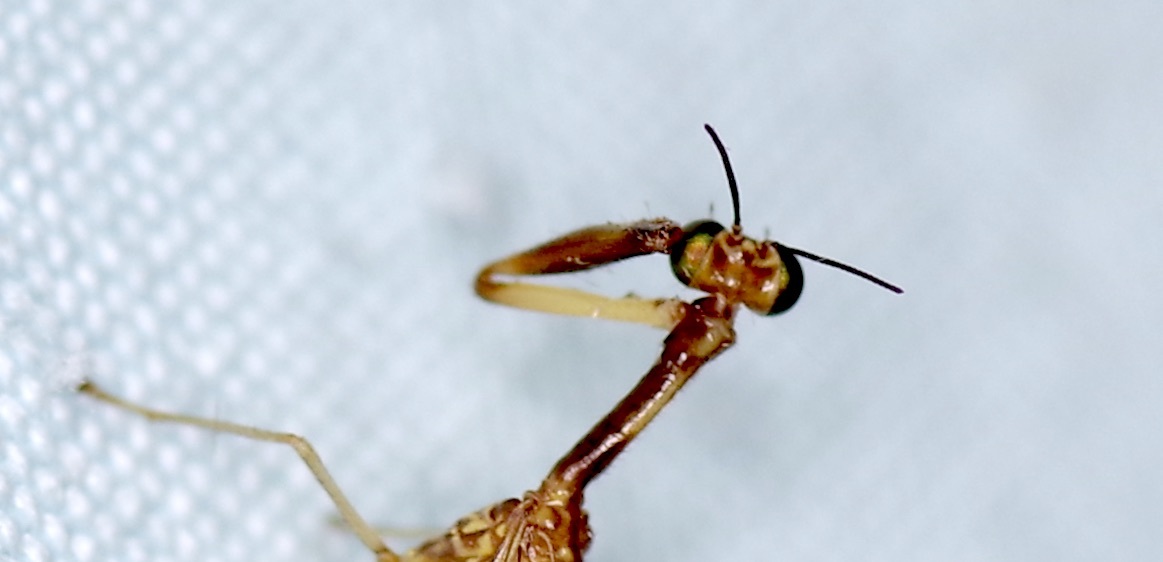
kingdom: Animalia
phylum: Arthropoda
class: Insecta
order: Neuroptera
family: Mantispidae
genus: Leptomantispa
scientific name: Leptomantispa pulchella
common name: Stevens's mantidfly
